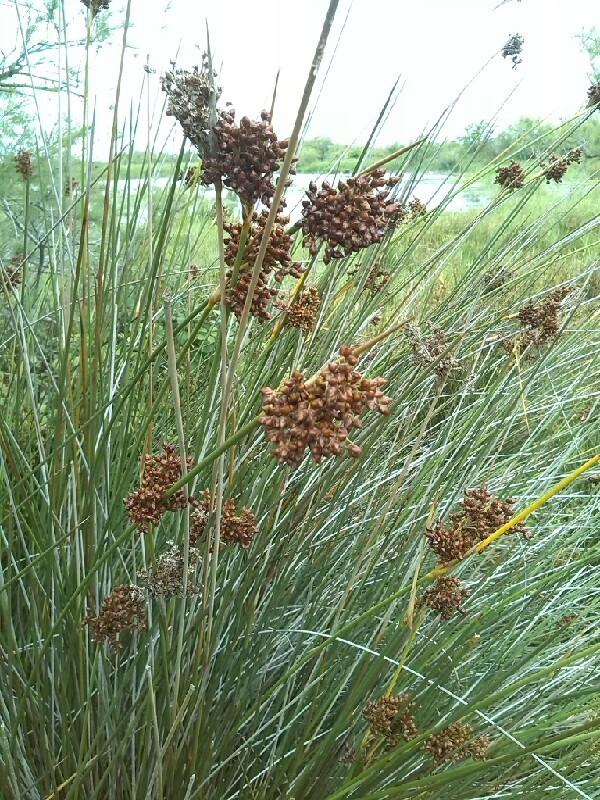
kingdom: Plantae
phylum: Tracheophyta
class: Liliopsida
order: Poales
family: Juncaceae
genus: Juncus
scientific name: Juncus acutus
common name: Sharp rush
